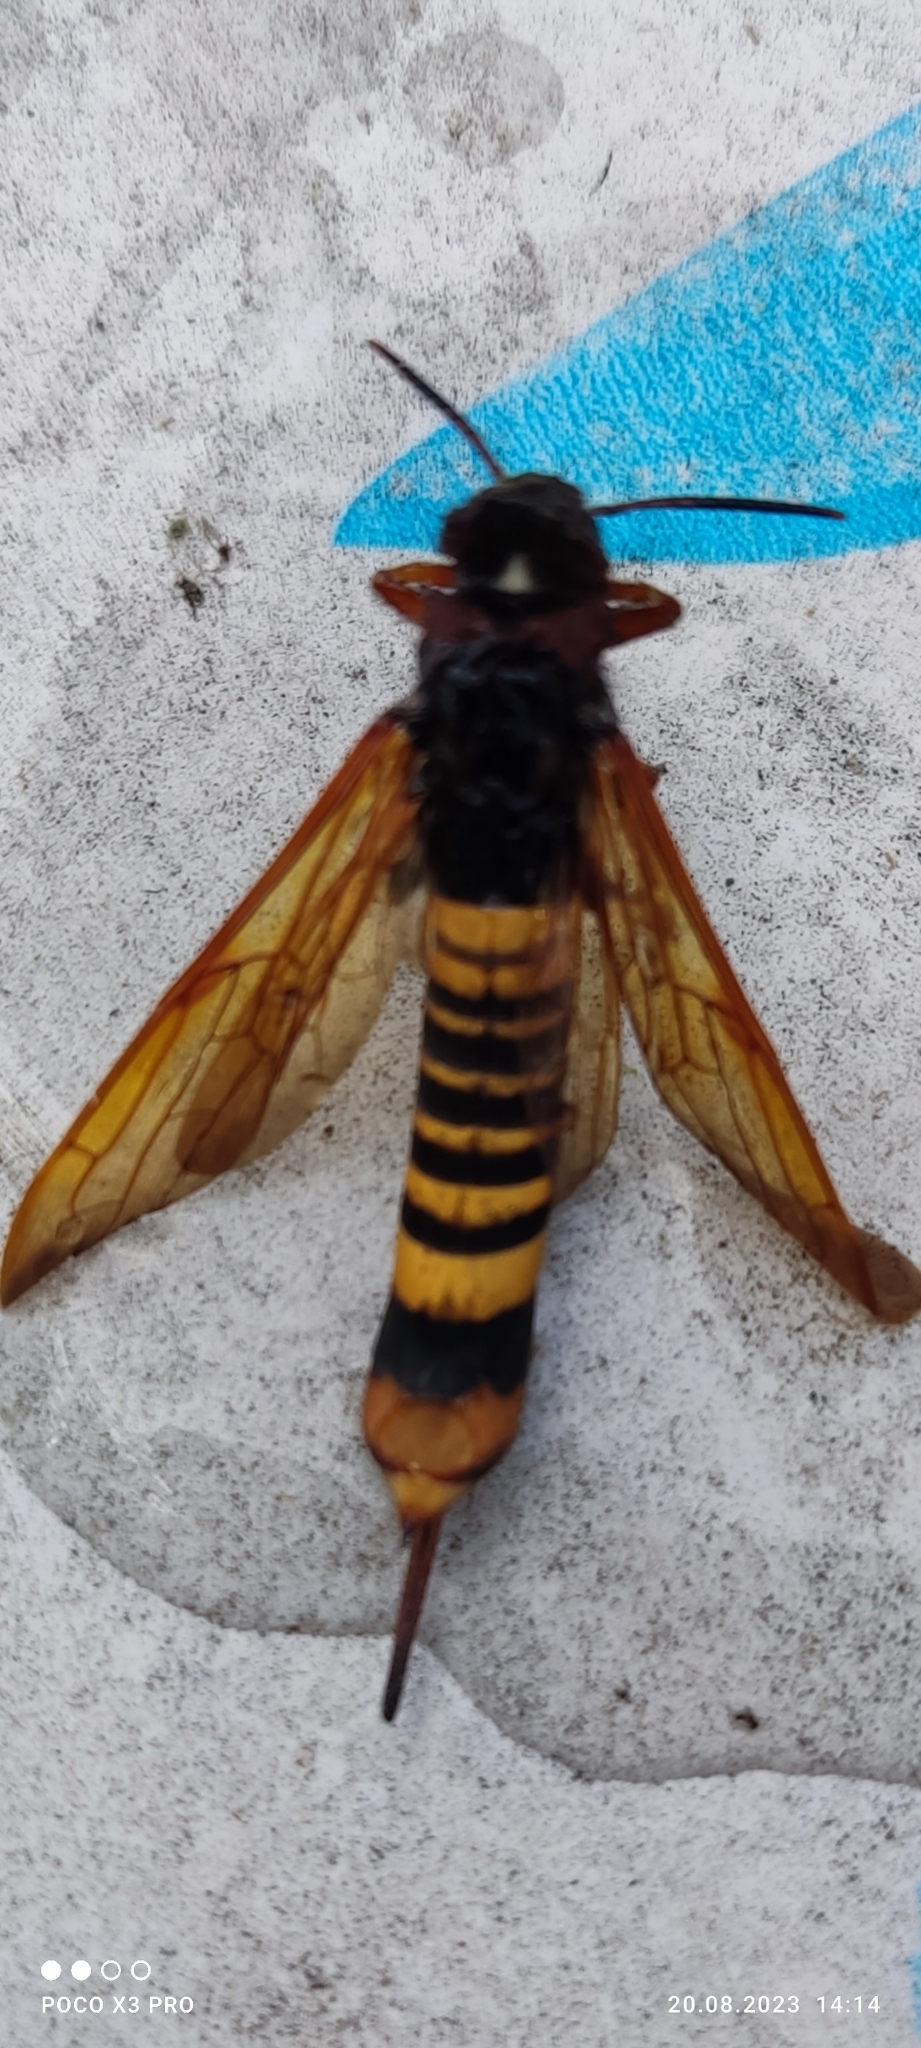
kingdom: Animalia
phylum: Arthropoda
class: Insecta
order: Hymenoptera
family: Siricidae
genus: Tremex
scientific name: Tremex fuscicornis
